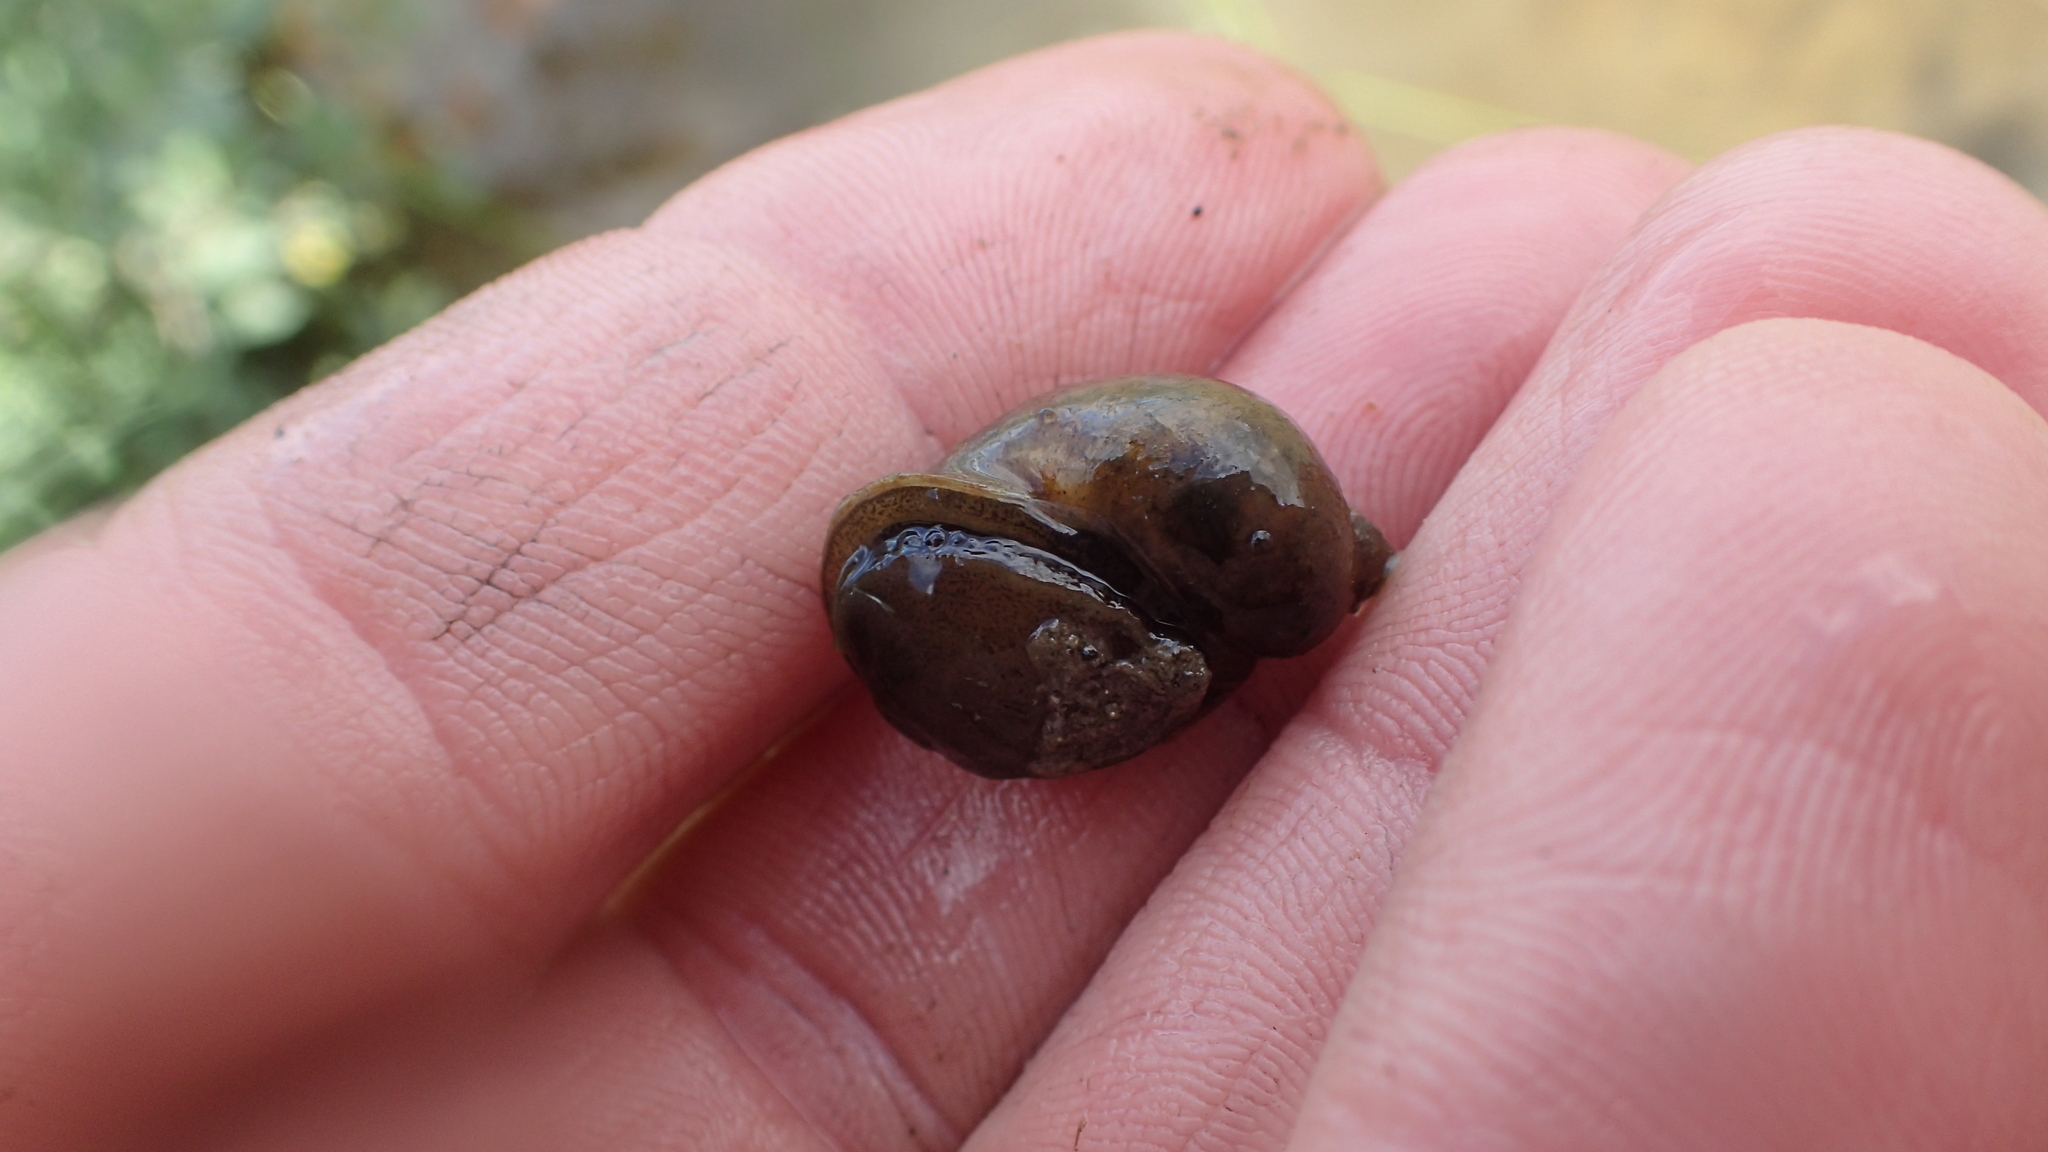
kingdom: Animalia
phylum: Mollusca
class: Gastropoda
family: Lymnaeidae
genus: Radix
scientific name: Radix auricularia
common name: Ear pond snail
